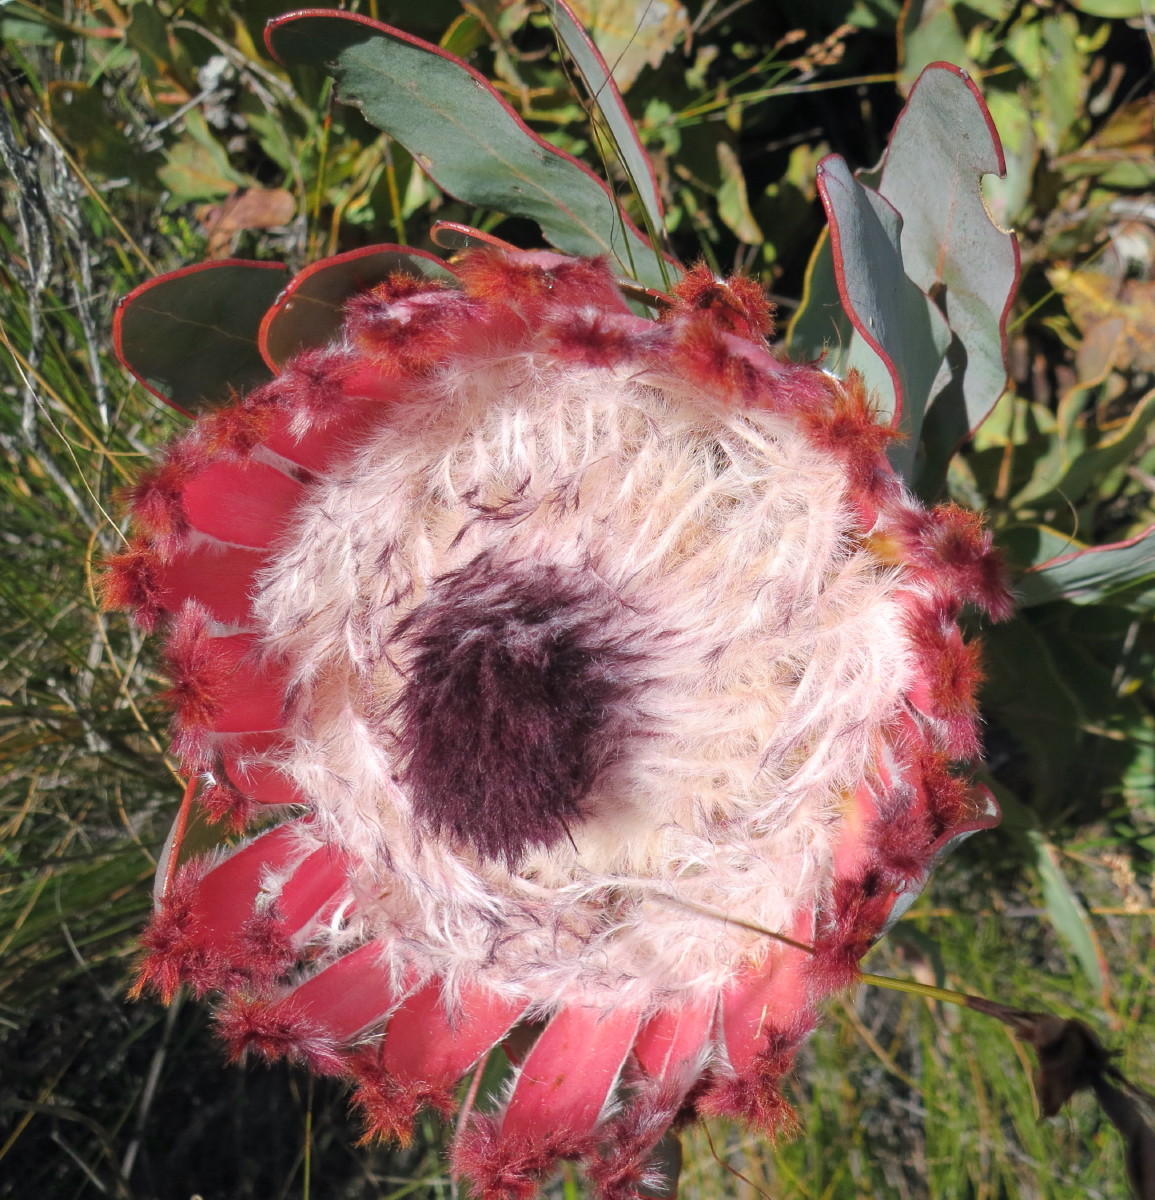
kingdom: Plantae
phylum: Tracheophyta
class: Magnoliopsida
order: Proteales
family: Proteaceae
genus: Protea
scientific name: Protea magnifica
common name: Bearded sugarbush
